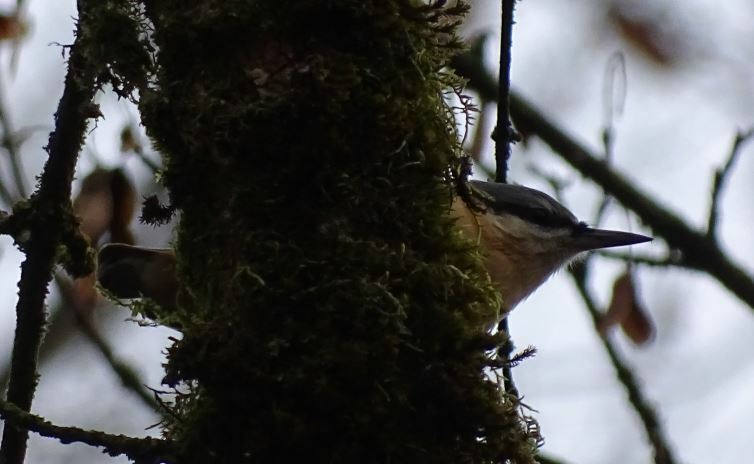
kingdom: Animalia
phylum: Chordata
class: Aves
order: Passeriformes
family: Sittidae
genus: Sitta
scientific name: Sitta europaea
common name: Eurasian nuthatch
